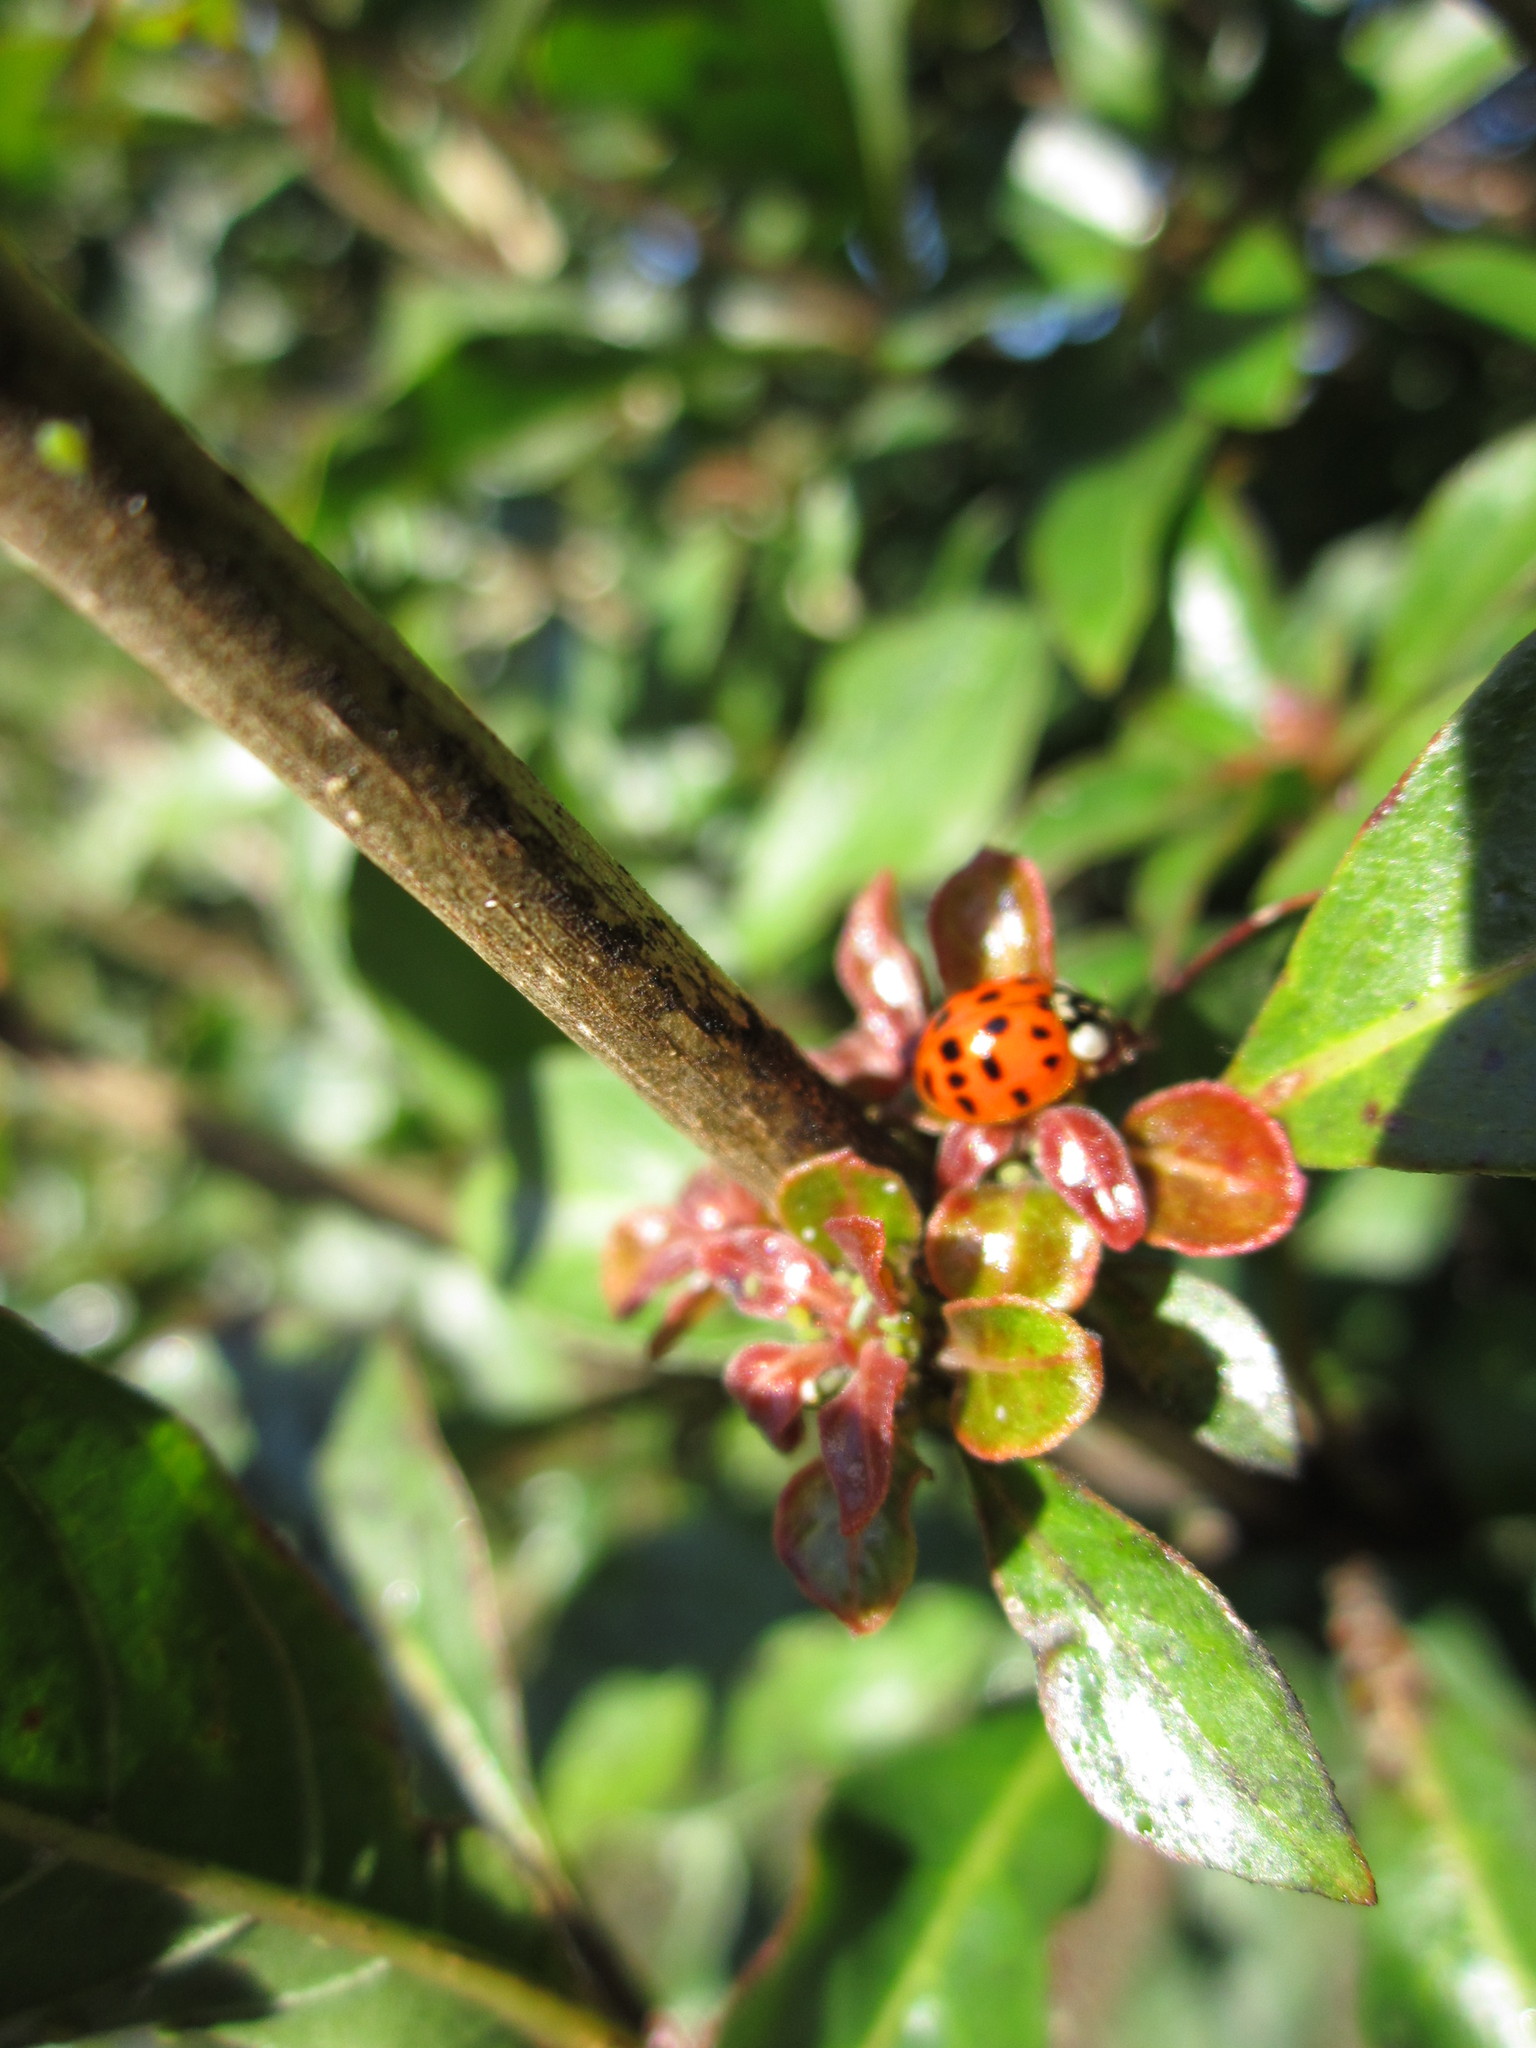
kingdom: Animalia
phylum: Arthropoda
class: Insecta
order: Coleoptera
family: Coccinellidae
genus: Harmonia
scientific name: Harmonia axyridis
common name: Harlequin ladybird
